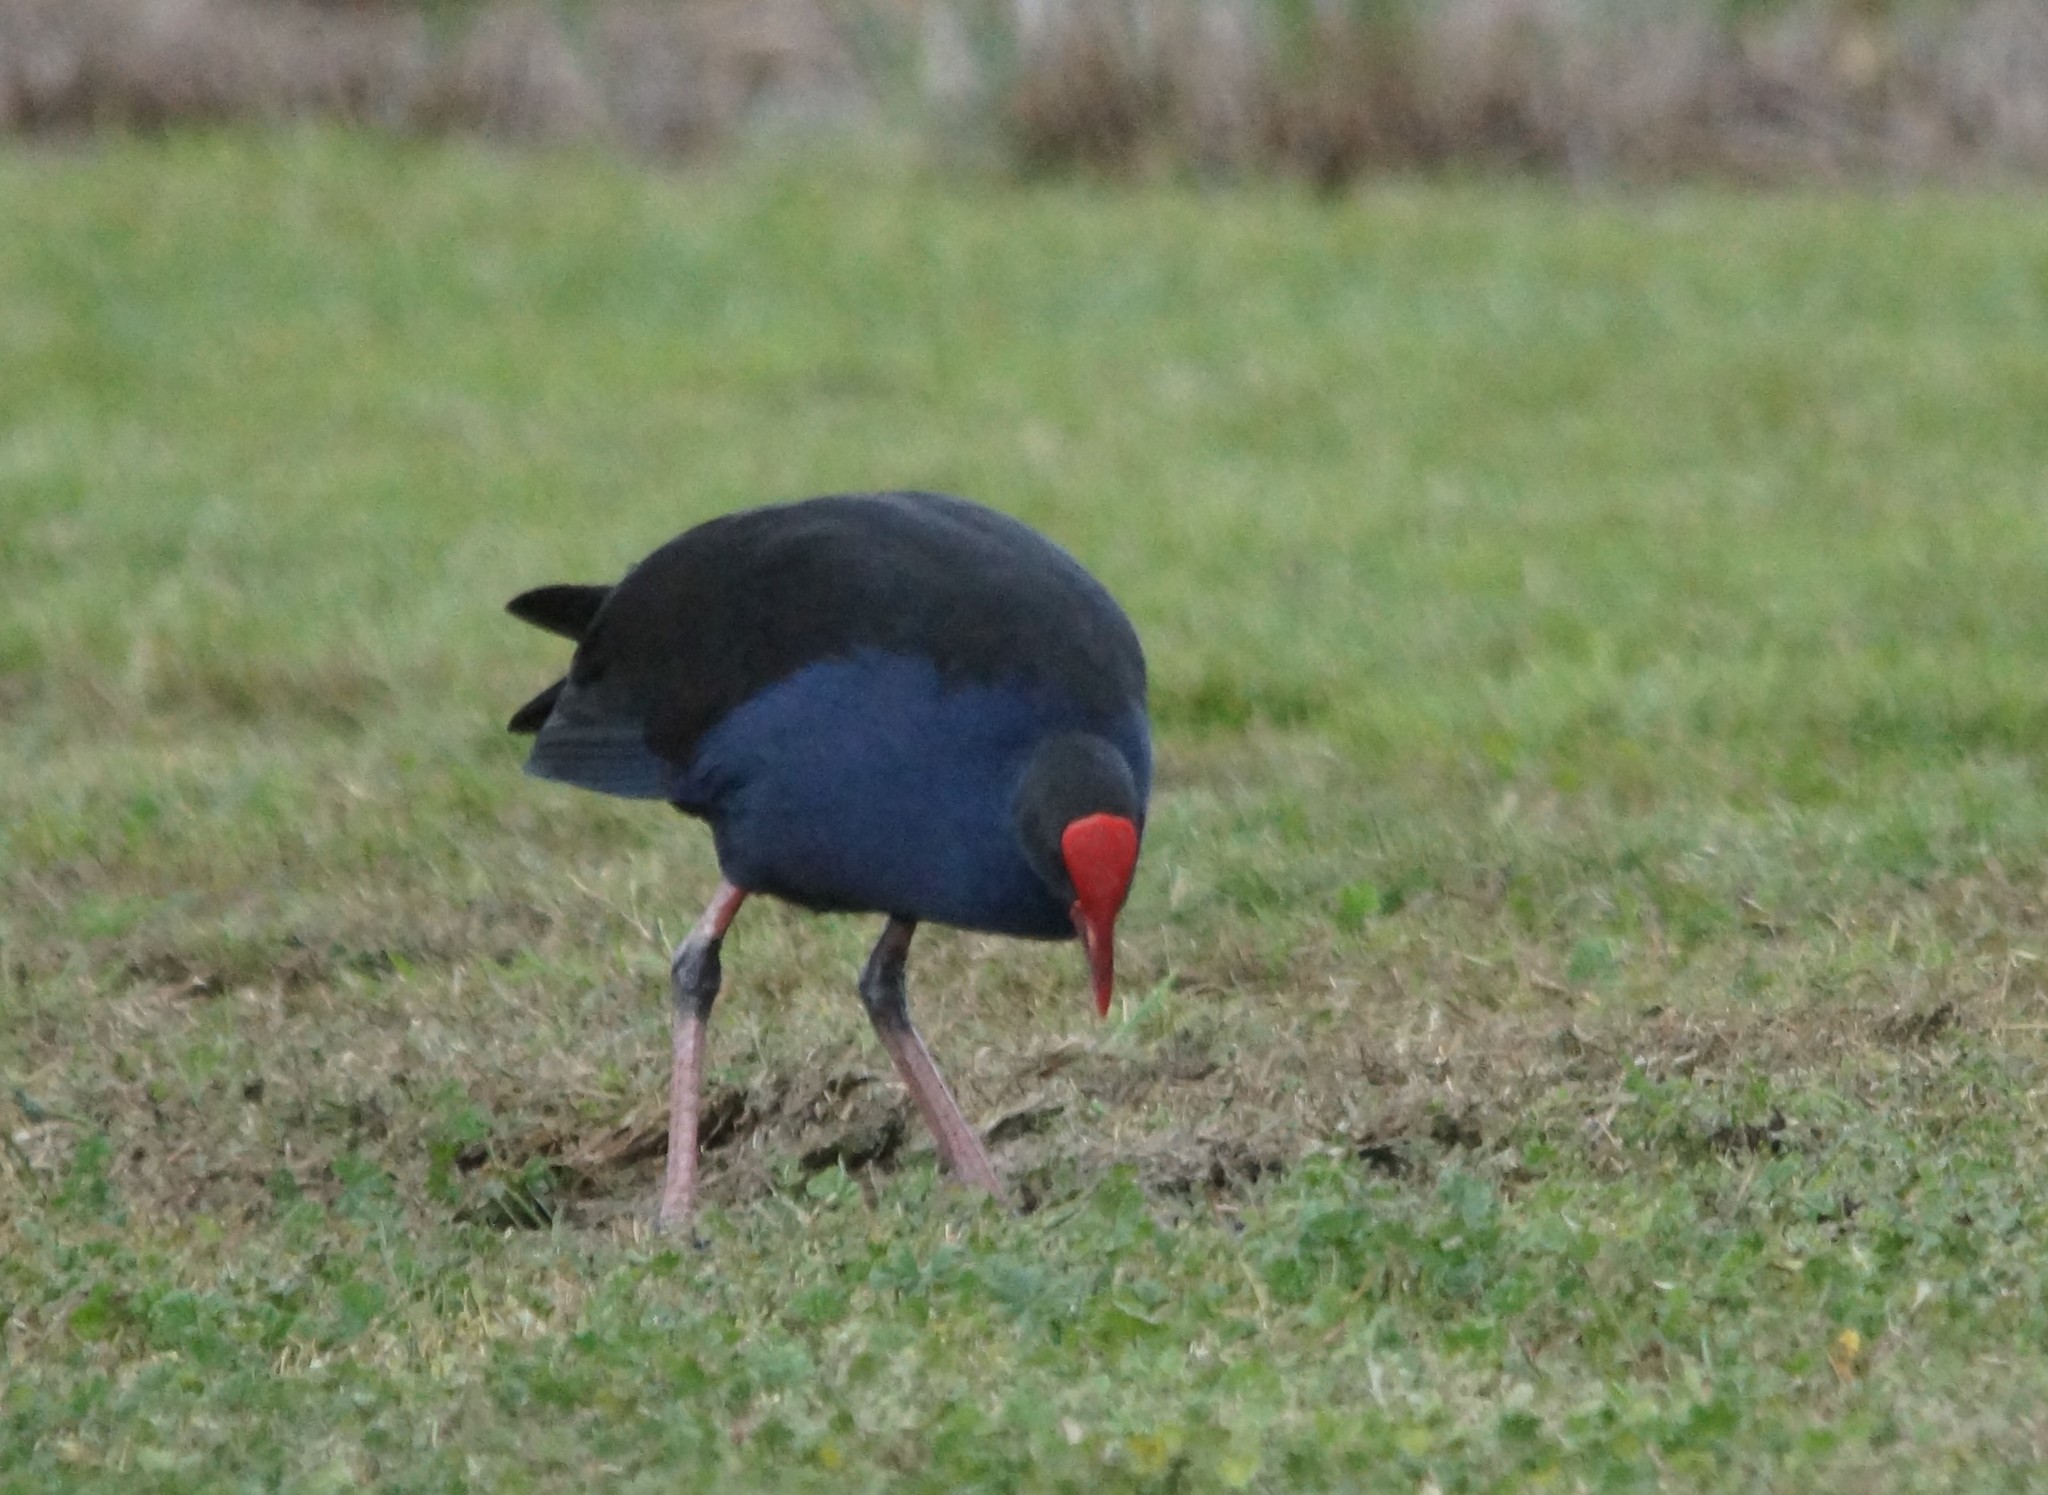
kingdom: Animalia
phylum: Chordata
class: Aves
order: Gruiformes
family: Rallidae
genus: Porphyrio
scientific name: Porphyrio melanotus
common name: Australasian swamphen
